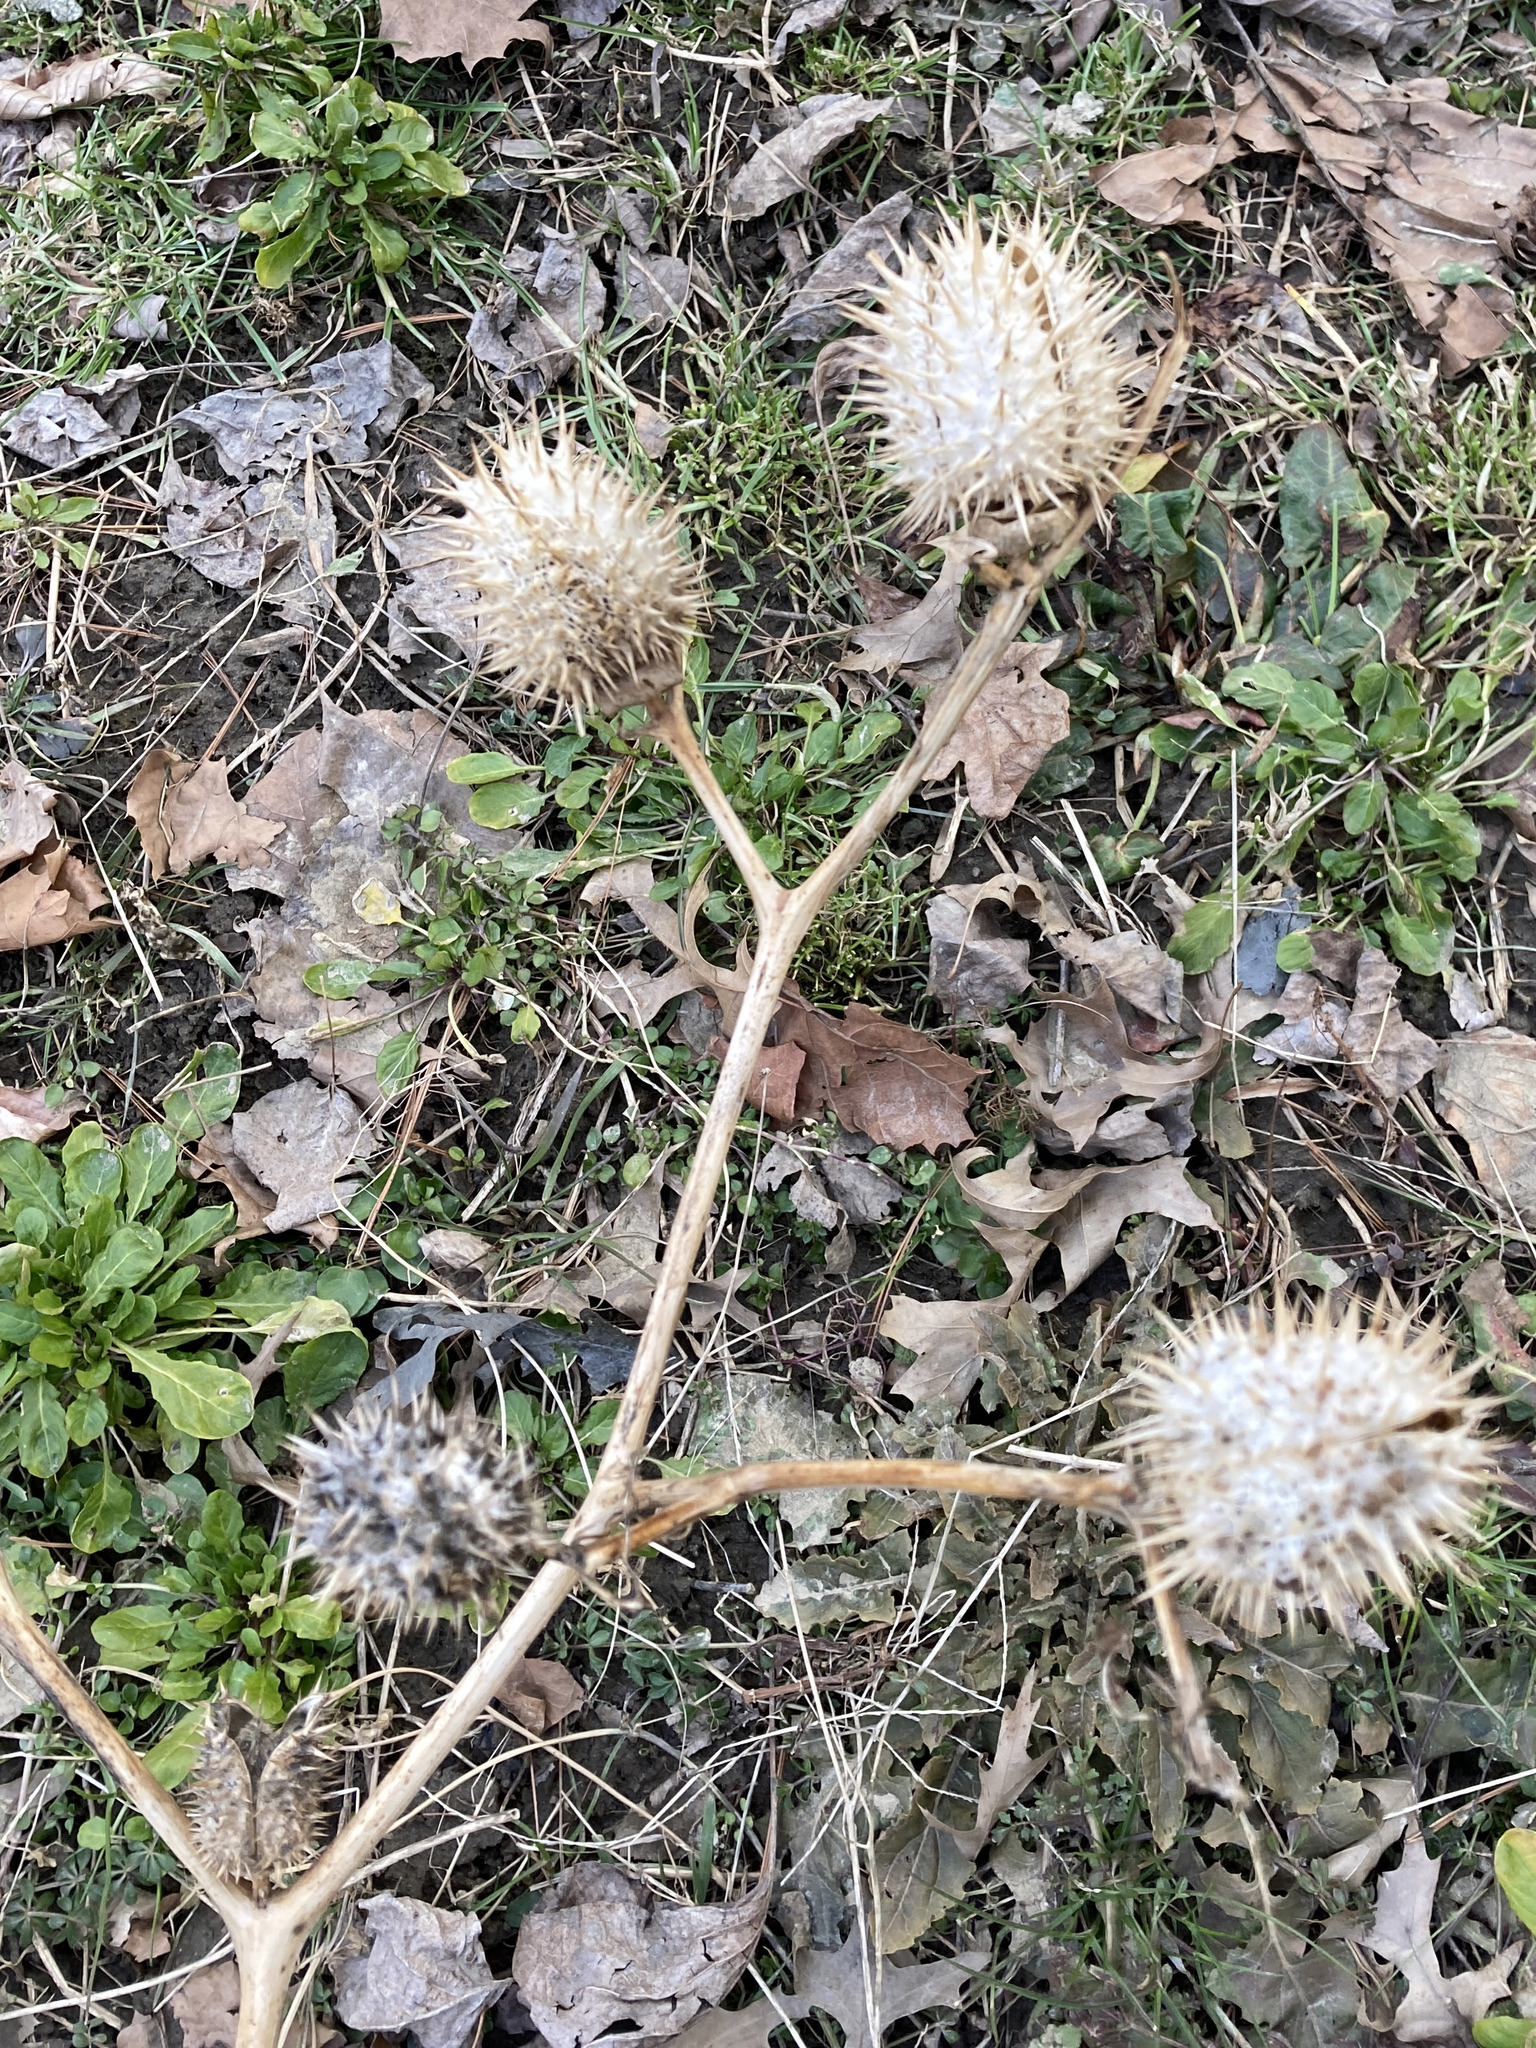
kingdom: Plantae
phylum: Tracheophyta
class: Magnoliopsida
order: Solanales
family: Solanaceae
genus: Datura
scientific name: Datura stramonium
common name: Thorn-apple
